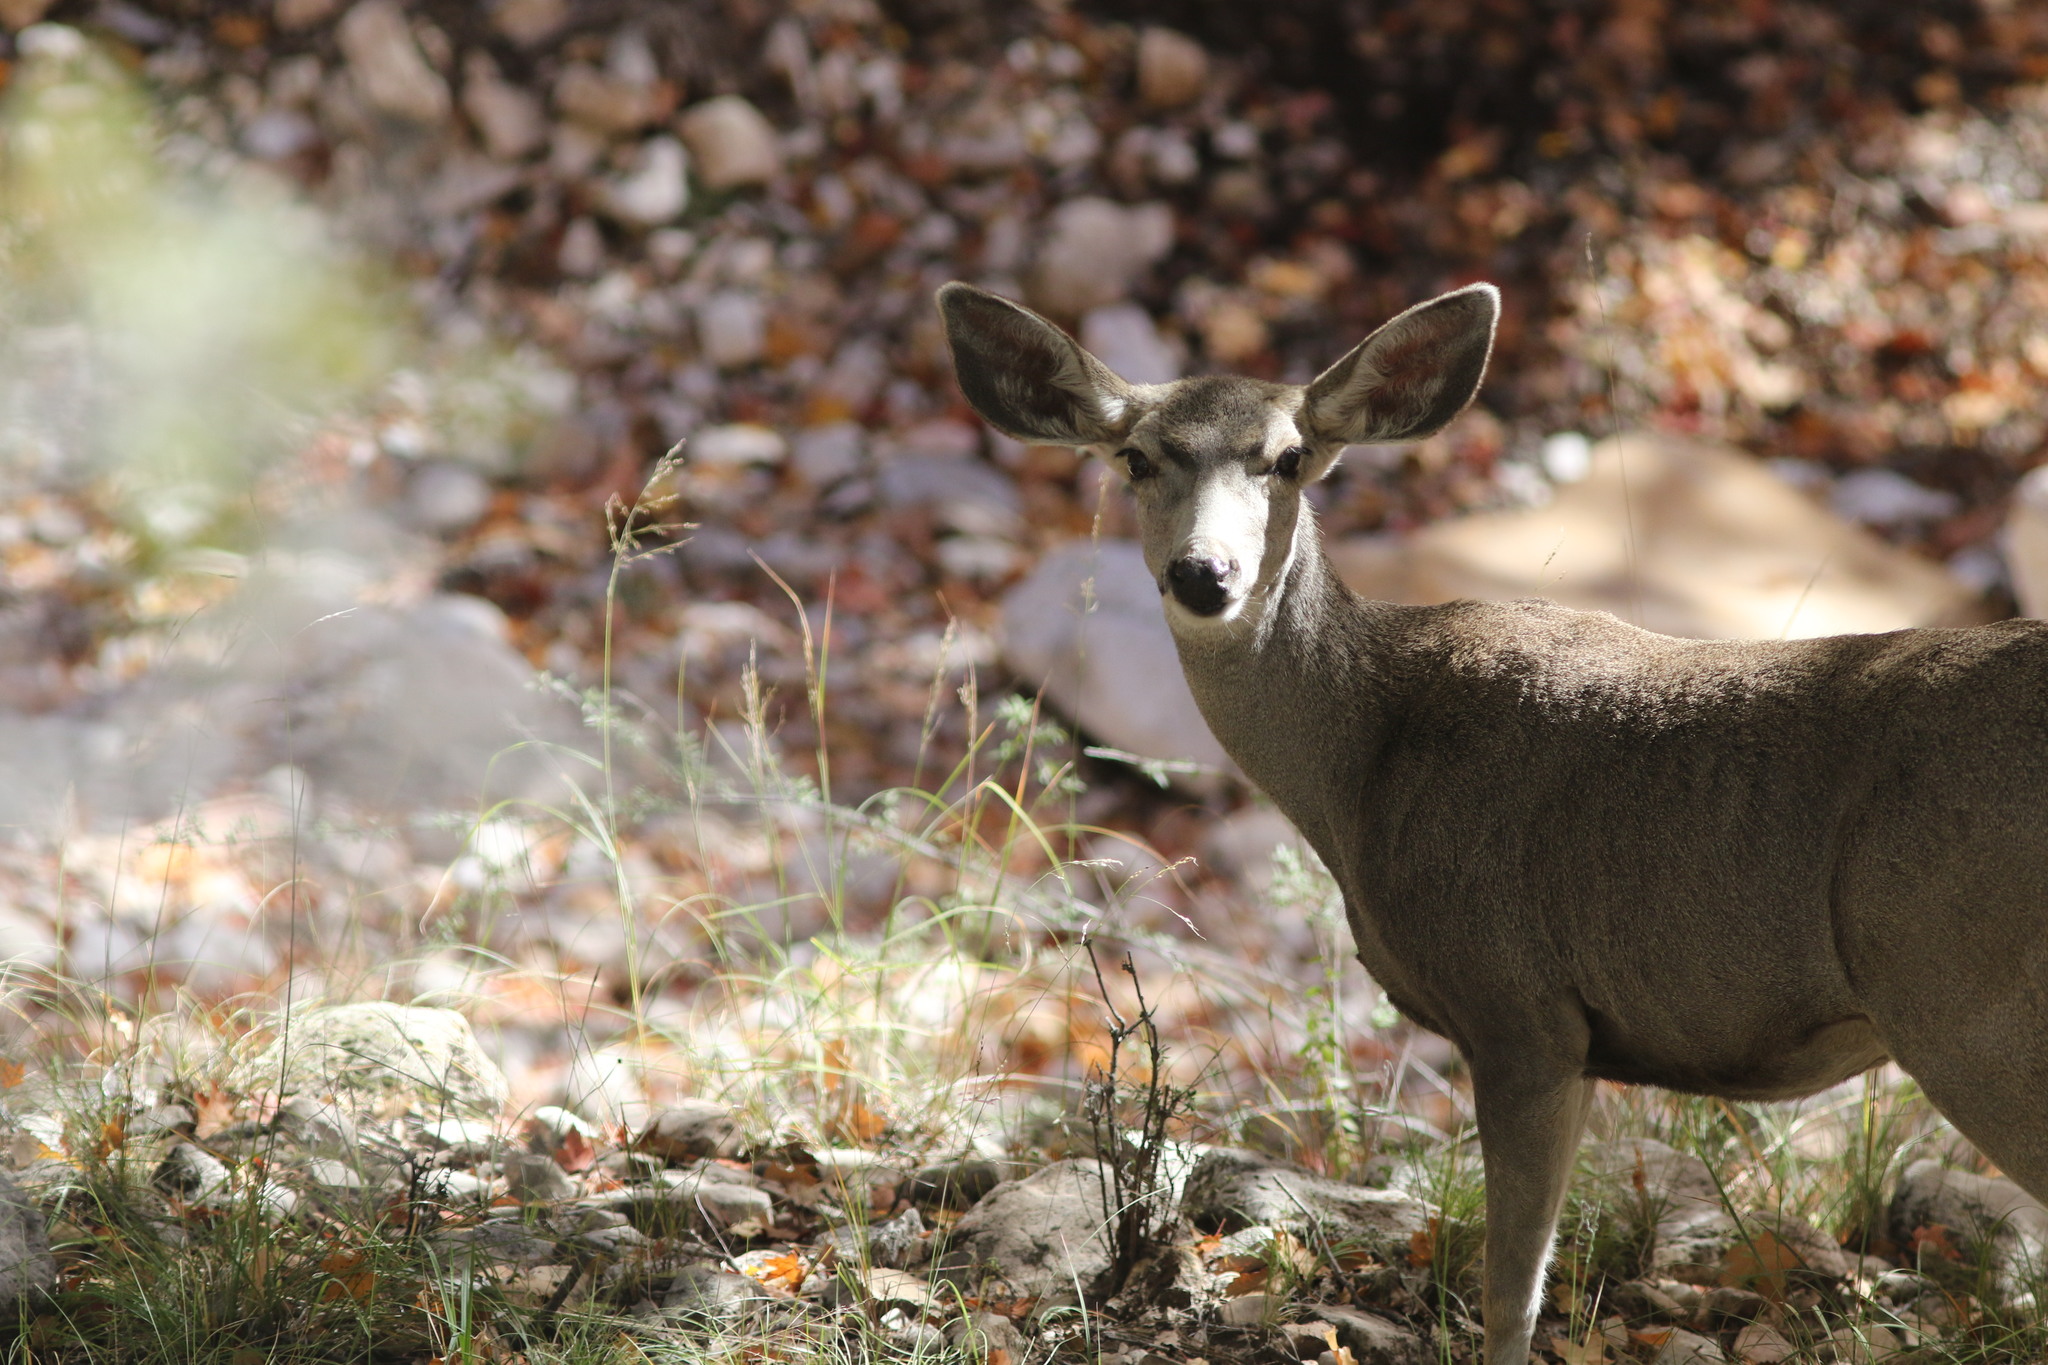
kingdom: Animalia
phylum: Chordata
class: Mammalia
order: Artiodactyla
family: Cervidae
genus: Odocoileus
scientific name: Odocoileus hemionus
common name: Mule deer
